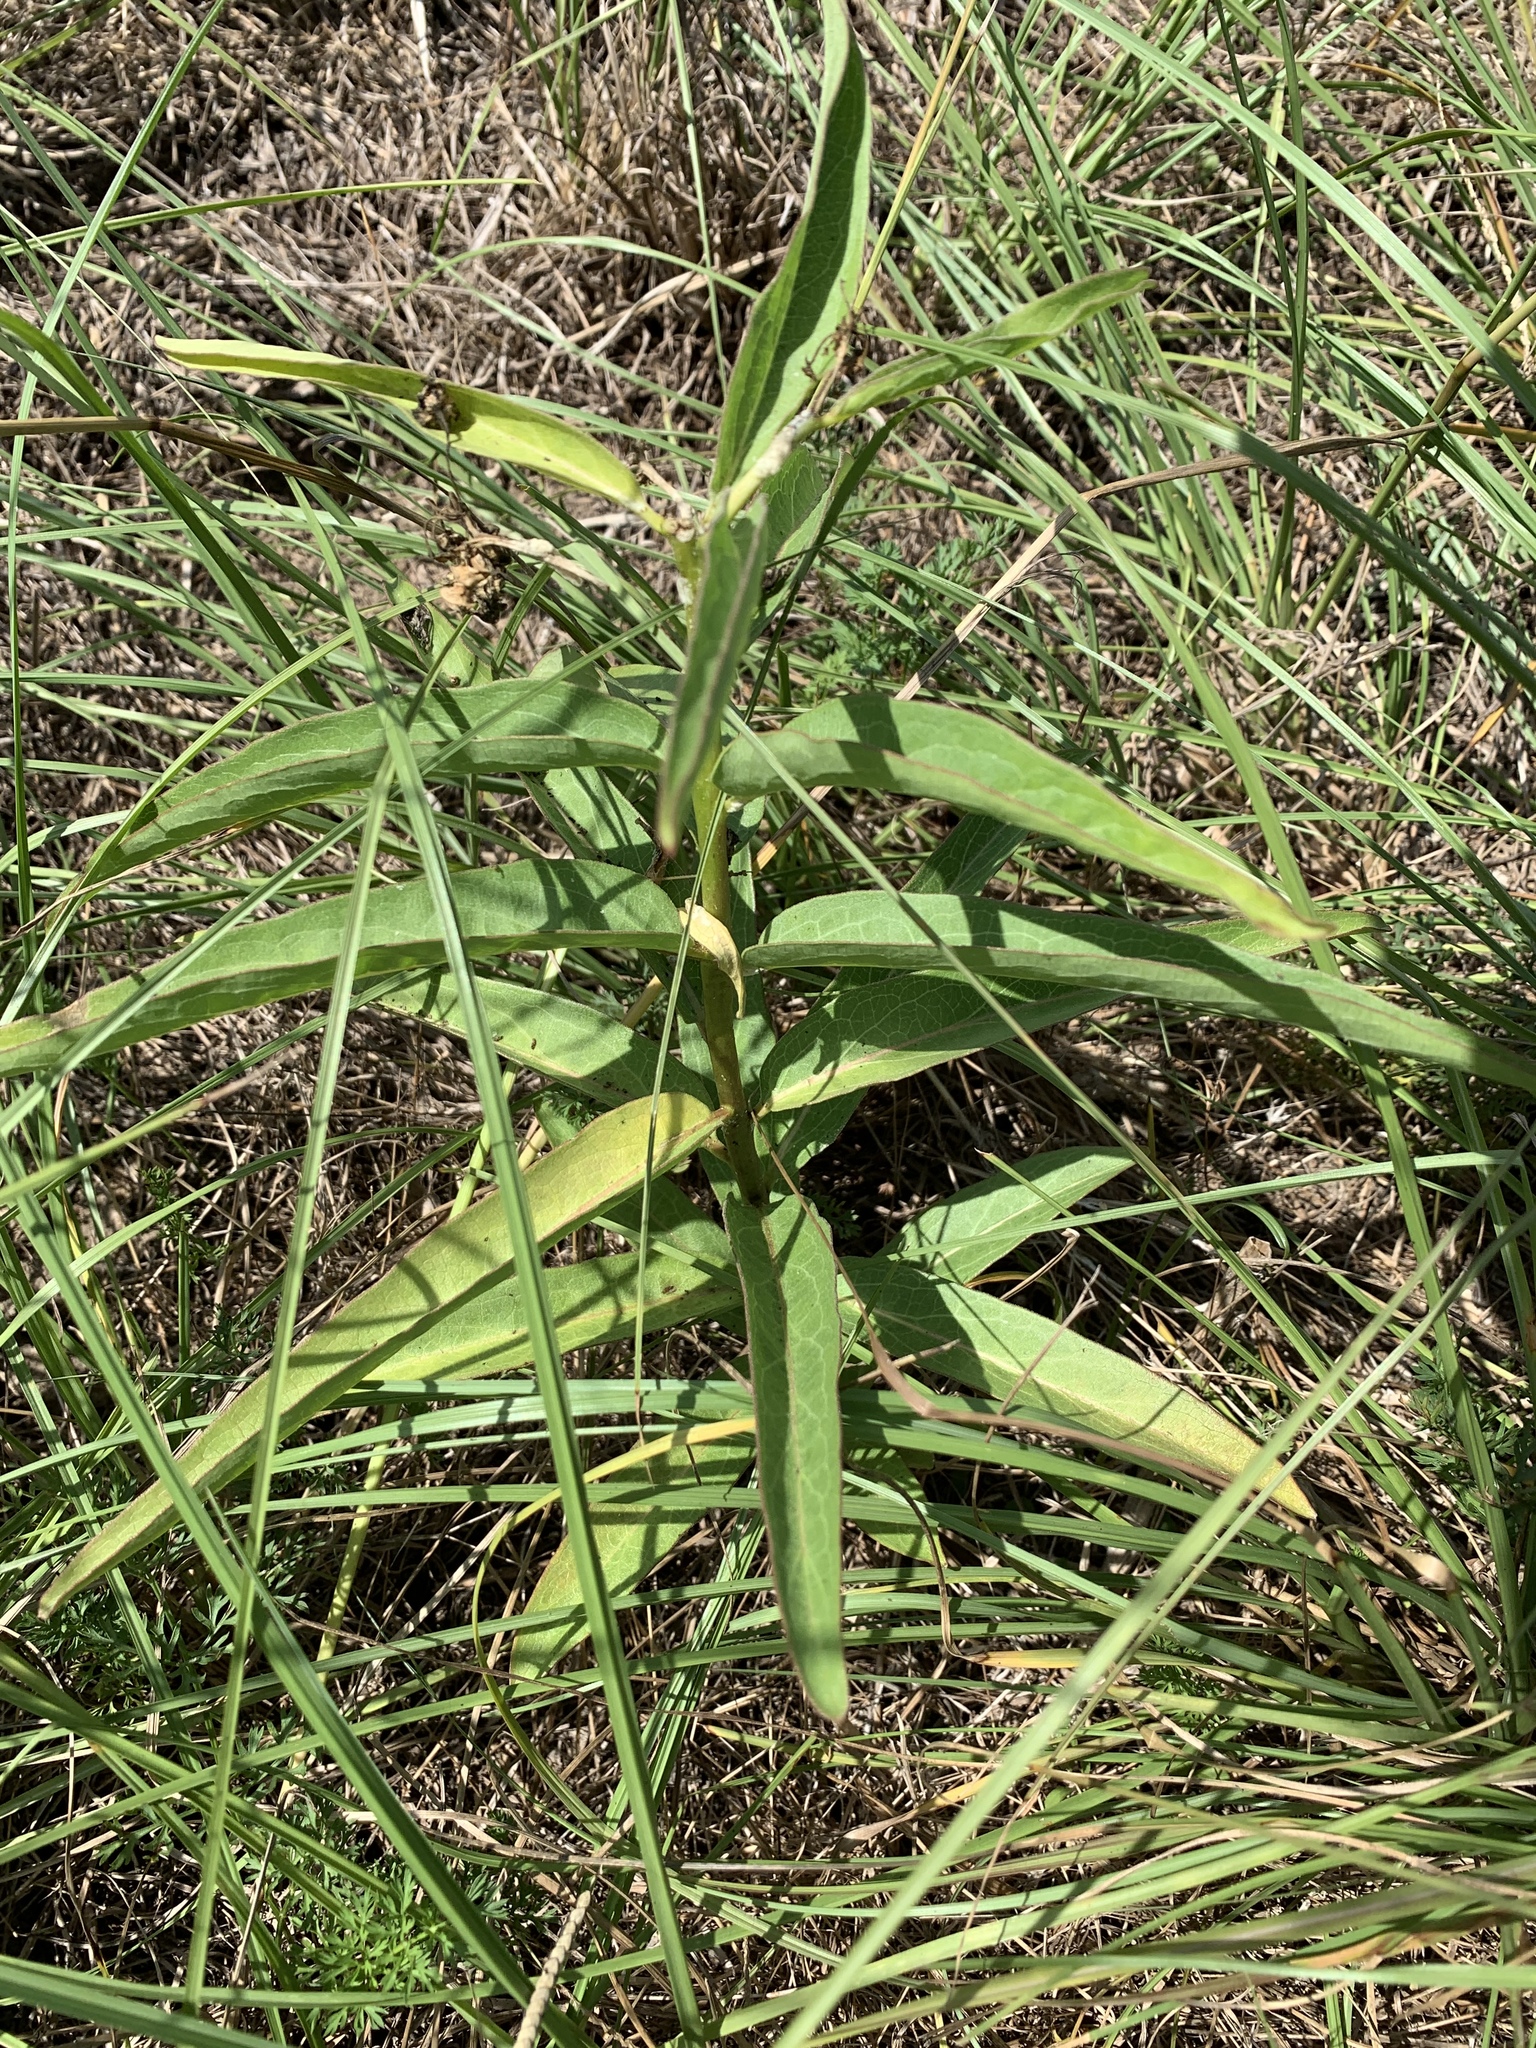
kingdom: Plantae
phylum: Tracheophyta
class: Magnoliopsida
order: Gentianales
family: Apocynaceae
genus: Asclepias
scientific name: Asclepias viridis
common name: Antelope-horns
